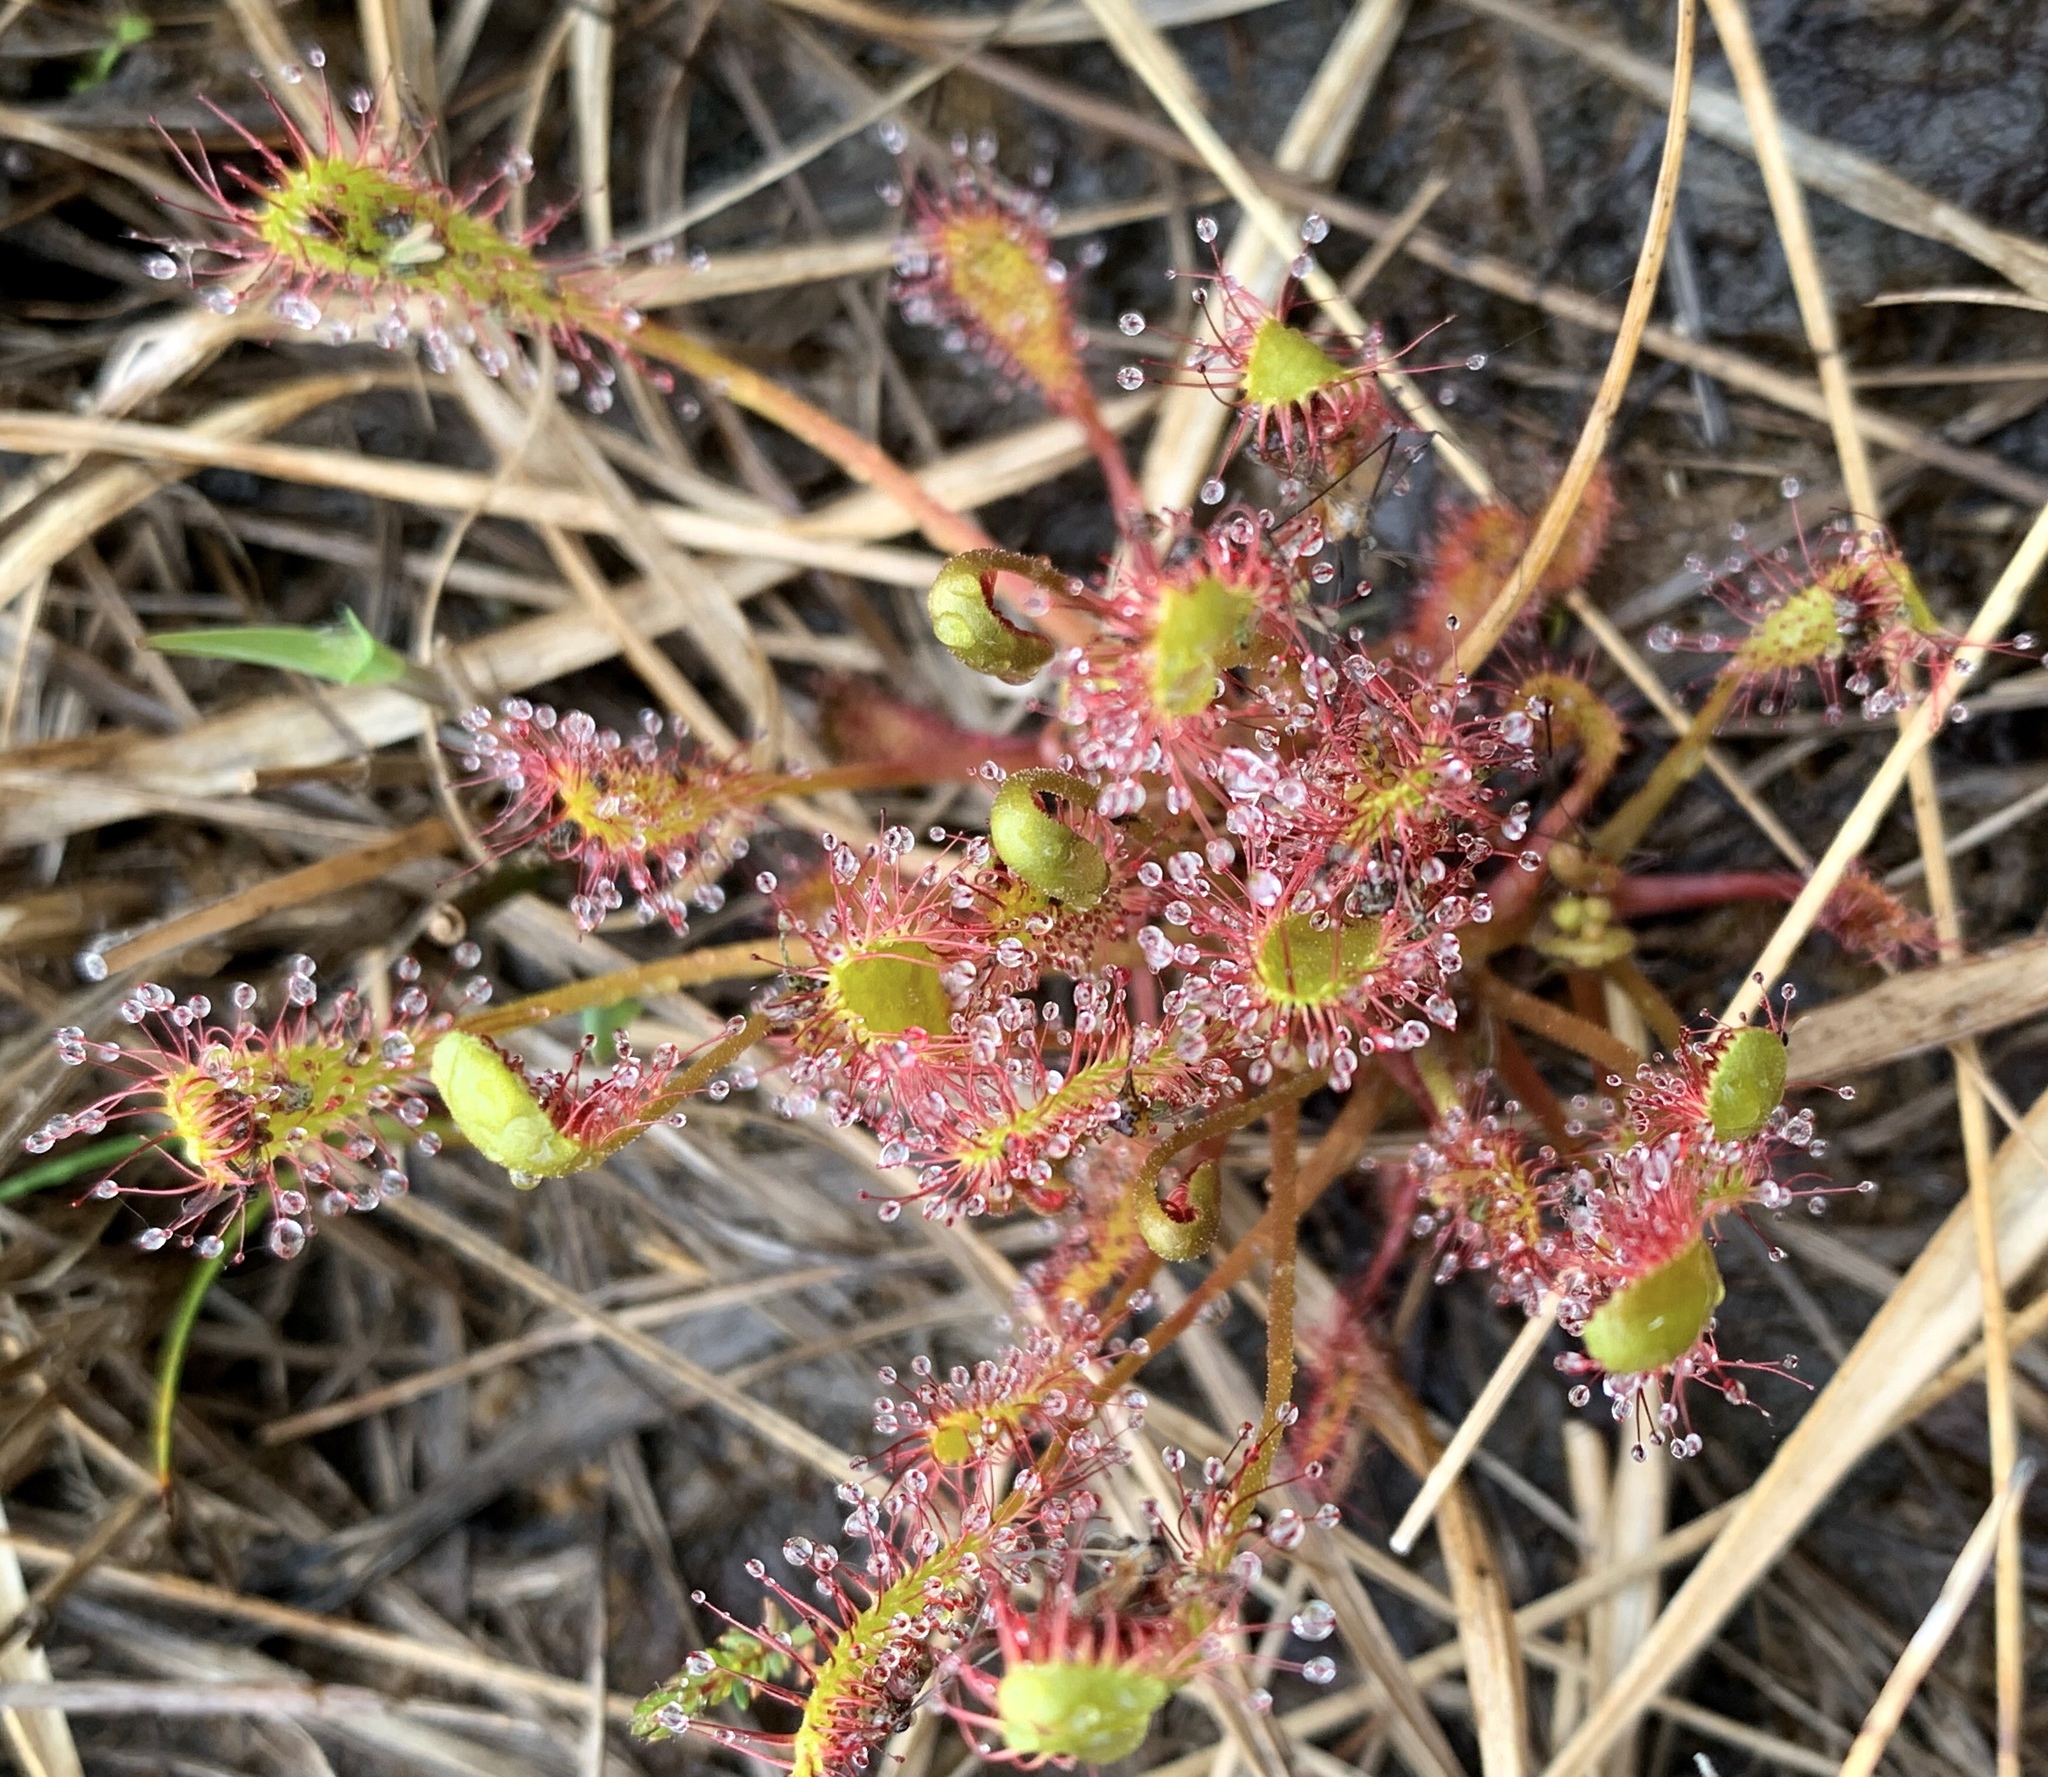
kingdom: Plantae
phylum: Tracheophyta
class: Magnoliopsida
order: Caryophyllales
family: Droseraceae
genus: Drosera
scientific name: Drosera anglica
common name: Great sundew
